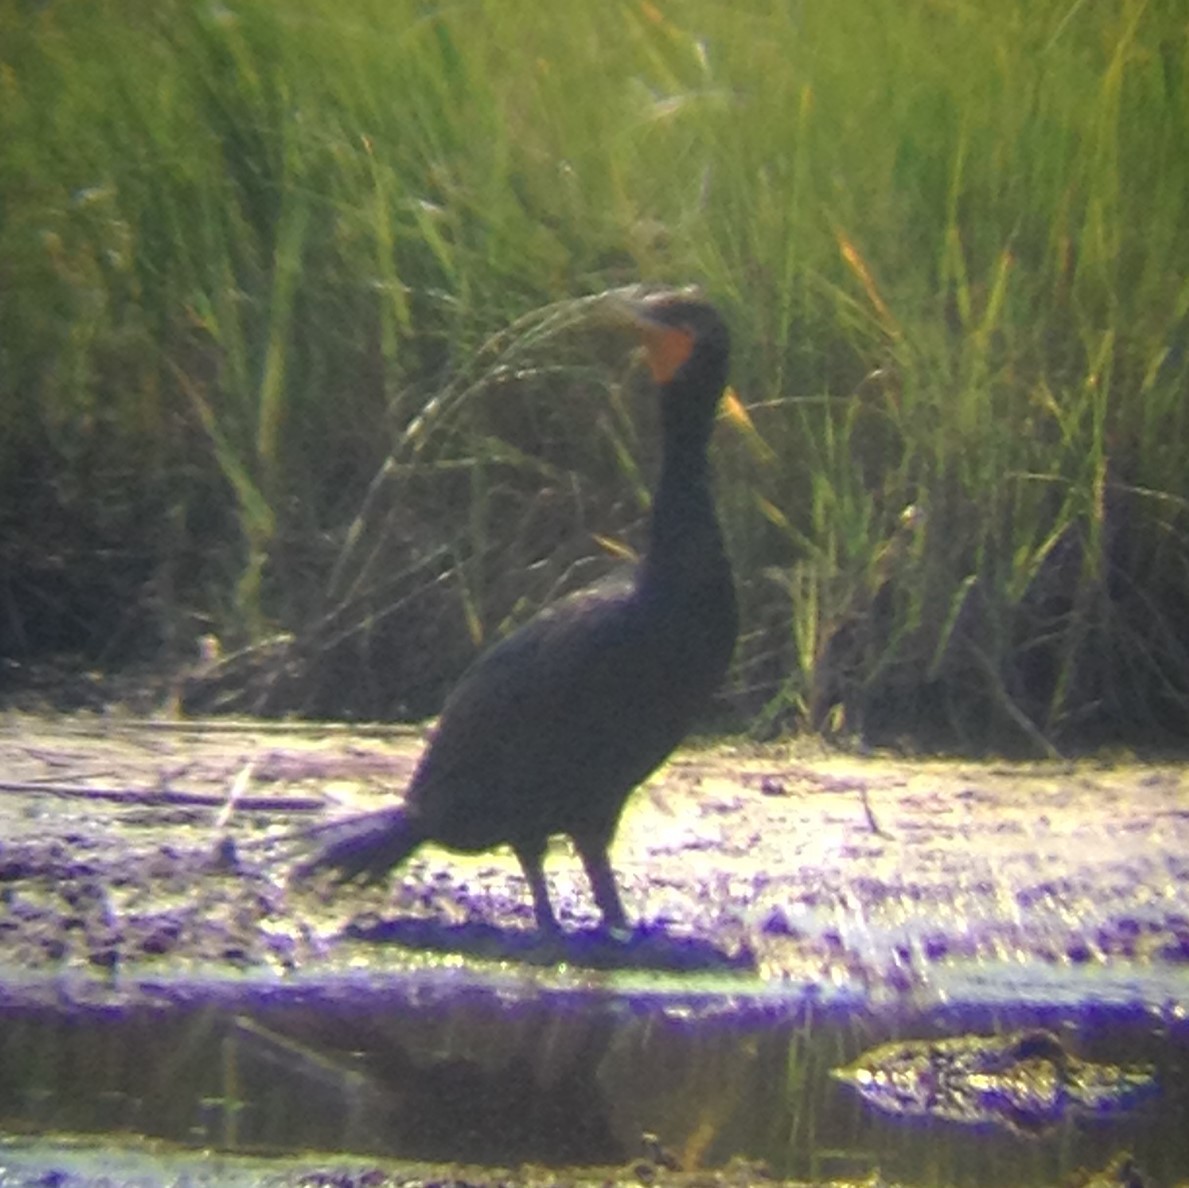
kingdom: Animalia
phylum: Chordata
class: Aves
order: Suliformes
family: Phalacrocoracidae
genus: Phalacrocorax
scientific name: Phalacrocorax auritus
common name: Double-crested cormorant
